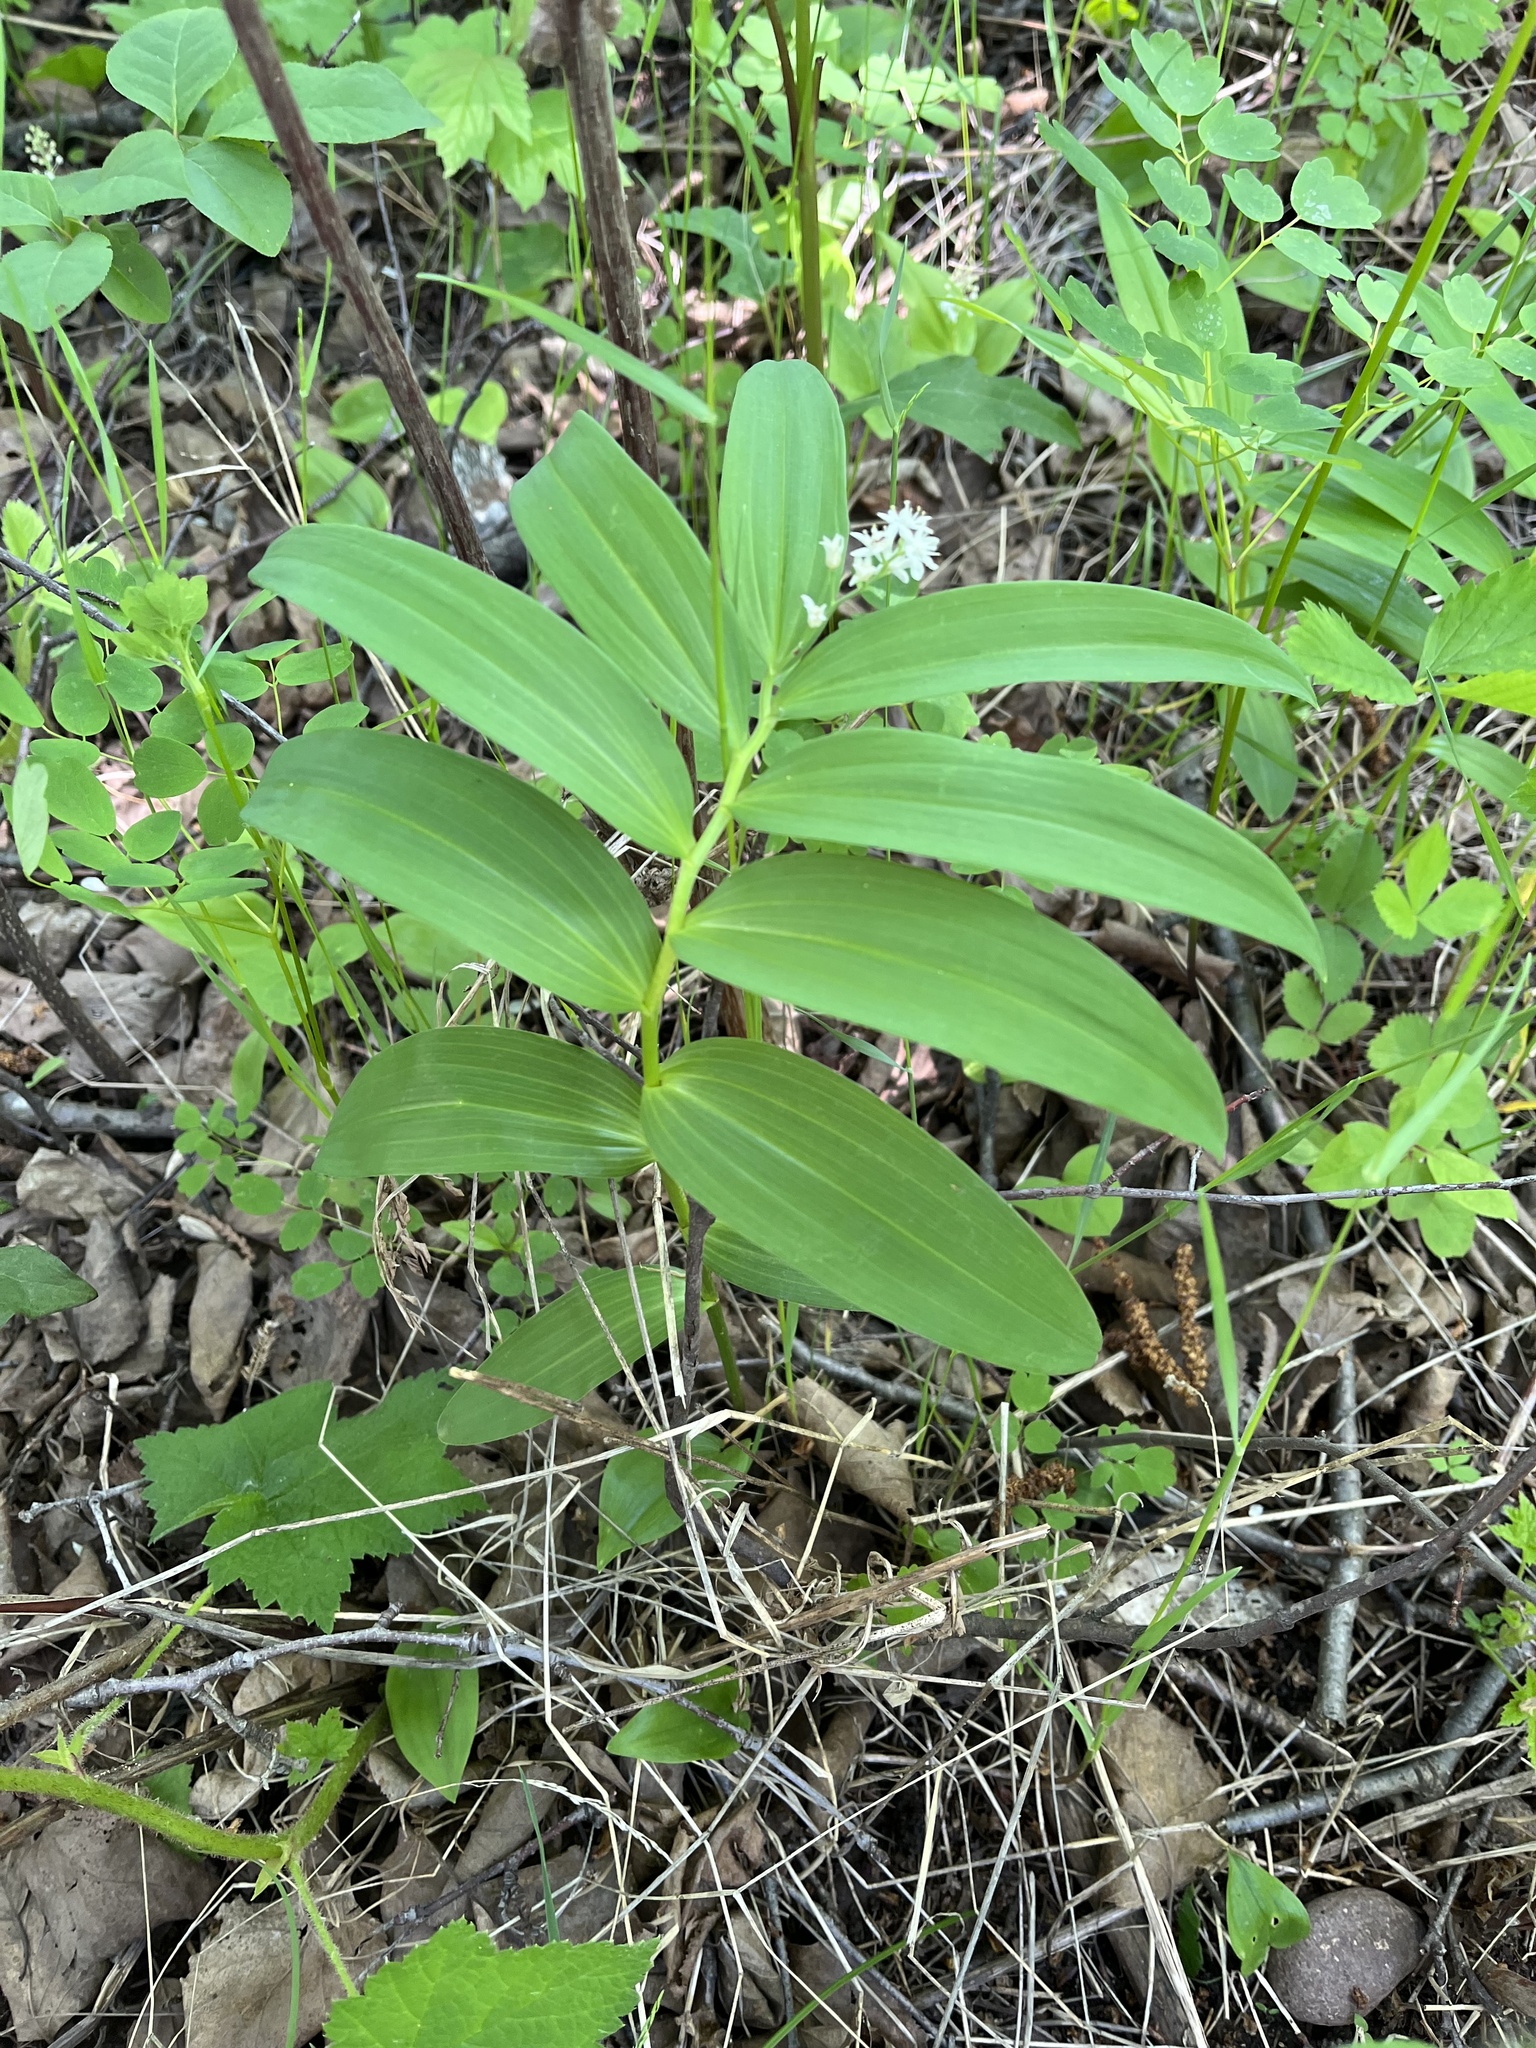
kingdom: Plantae
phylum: Tracheophyta
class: Liliopsida
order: Asparagales
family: Asparagaceae
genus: Maianthemum
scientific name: Maianthemum stellatum
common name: Little false solomon's seal
